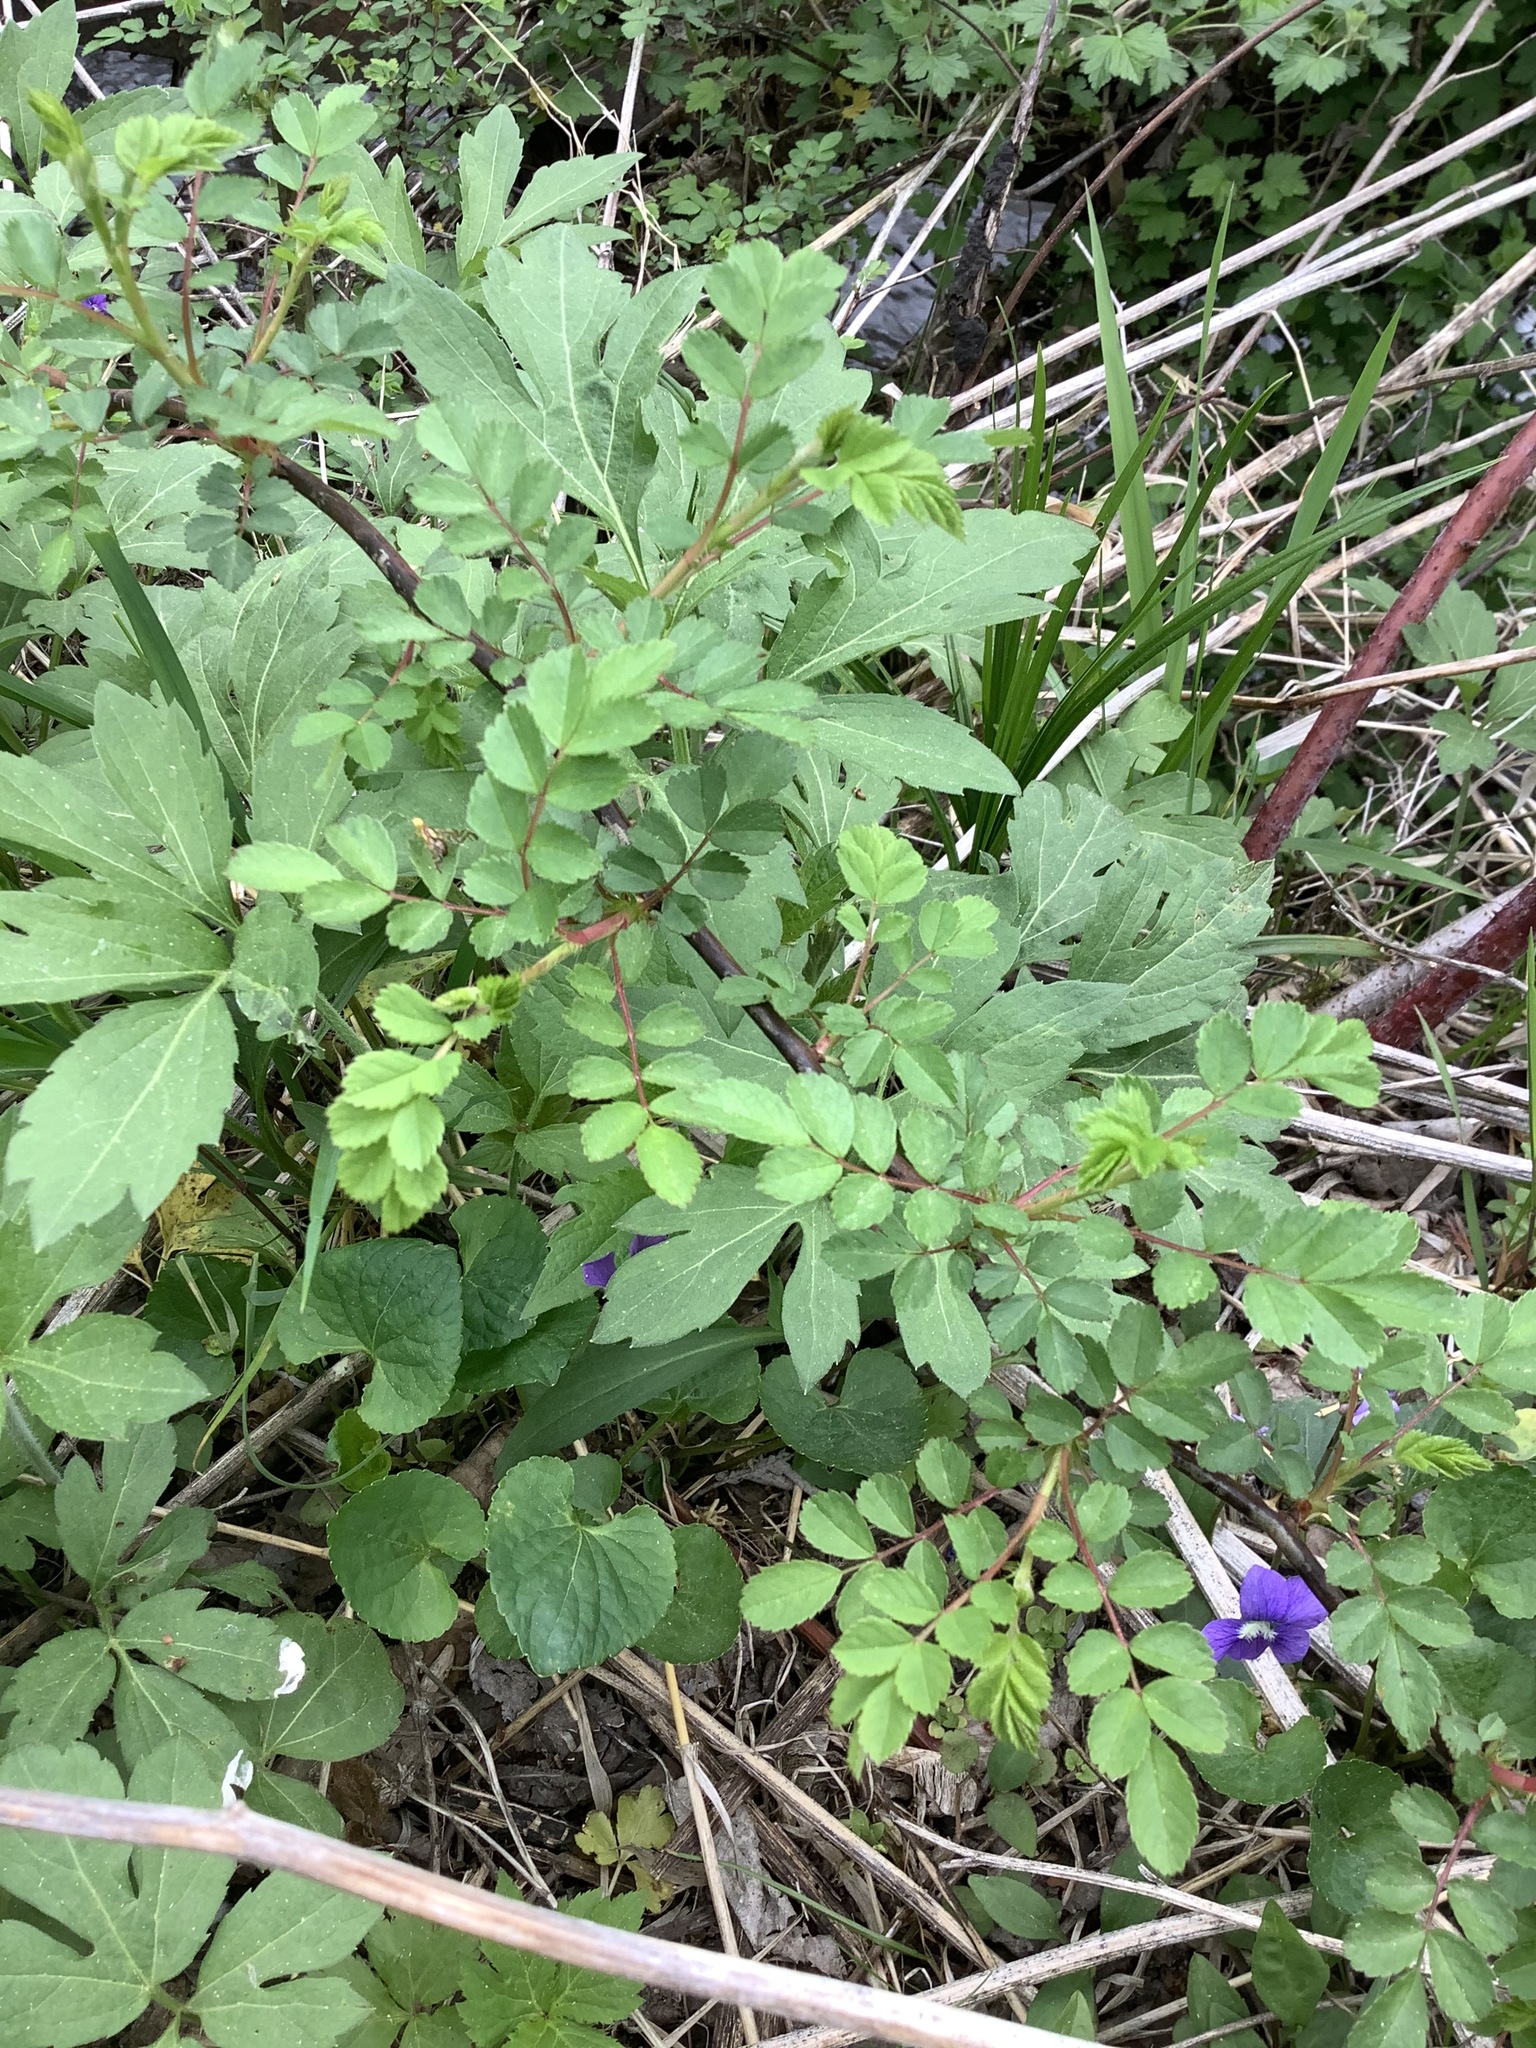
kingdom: Plantae
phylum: Tracheophyta
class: Magnoliopsida
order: Rosales
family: Rosaceae
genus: Rosa
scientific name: Rosa multiflora
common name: Multiflora rose
